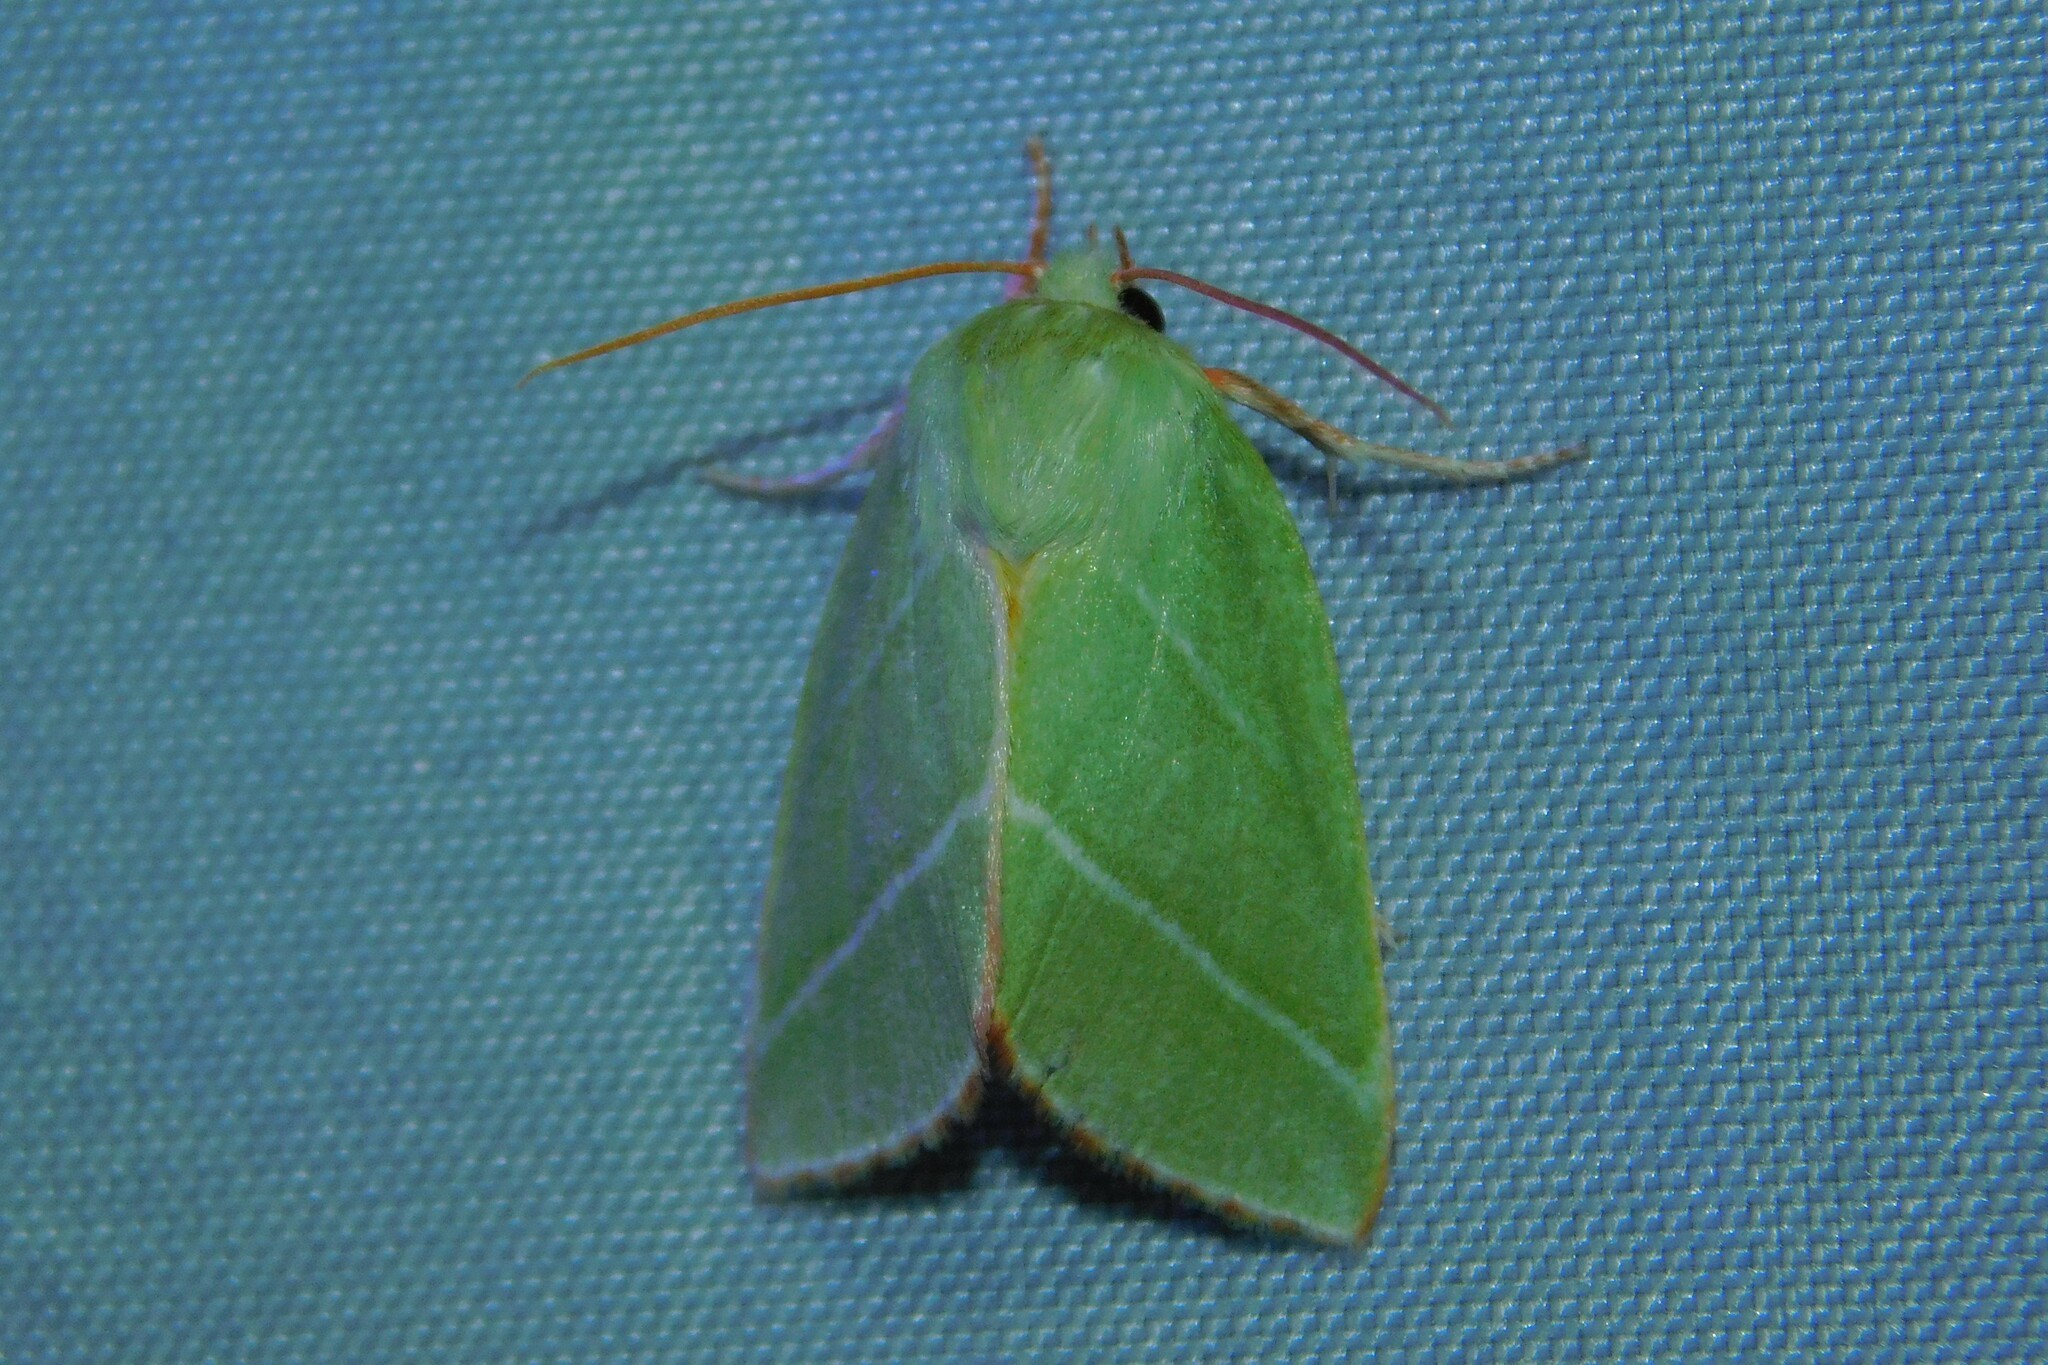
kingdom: Animalia
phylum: Arthropoda
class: Insecta
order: Lepidoptera
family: Nolidae
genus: Pseudoips
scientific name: Pseudoips prasinana
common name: Green silver-lines
